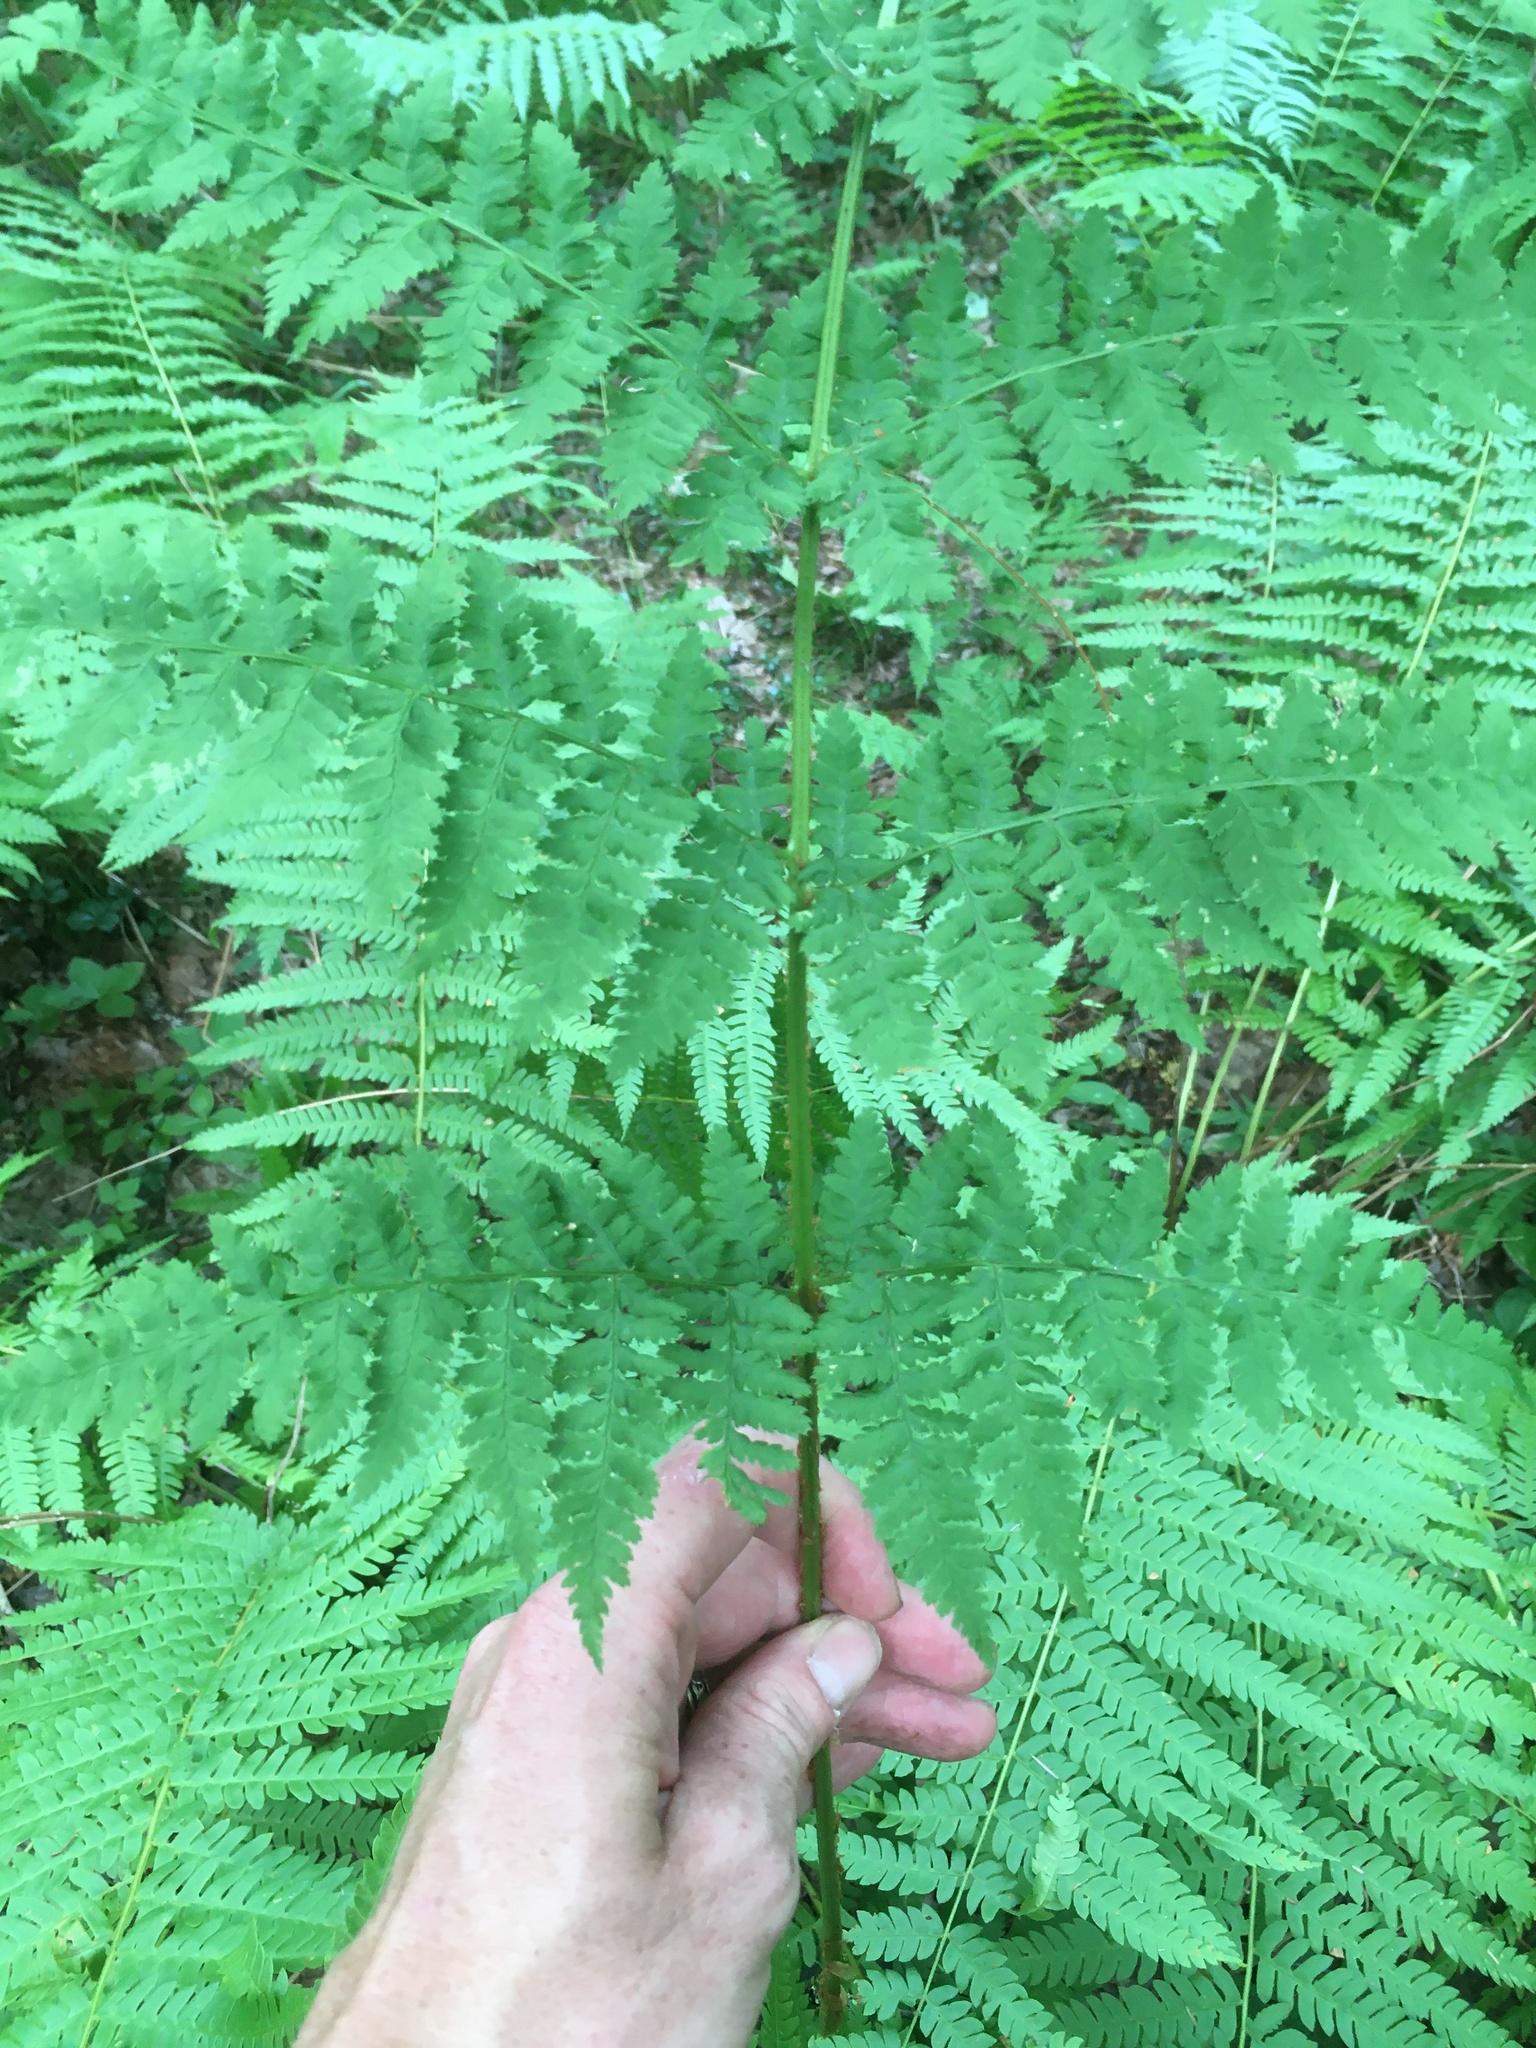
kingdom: Plantae
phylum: Tracheophyta
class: Polypodiopsida
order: Polypodiales
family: Dryopteridaceae
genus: Dryopteris
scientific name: Dryopteris campyloptera
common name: Mountain wood fern
